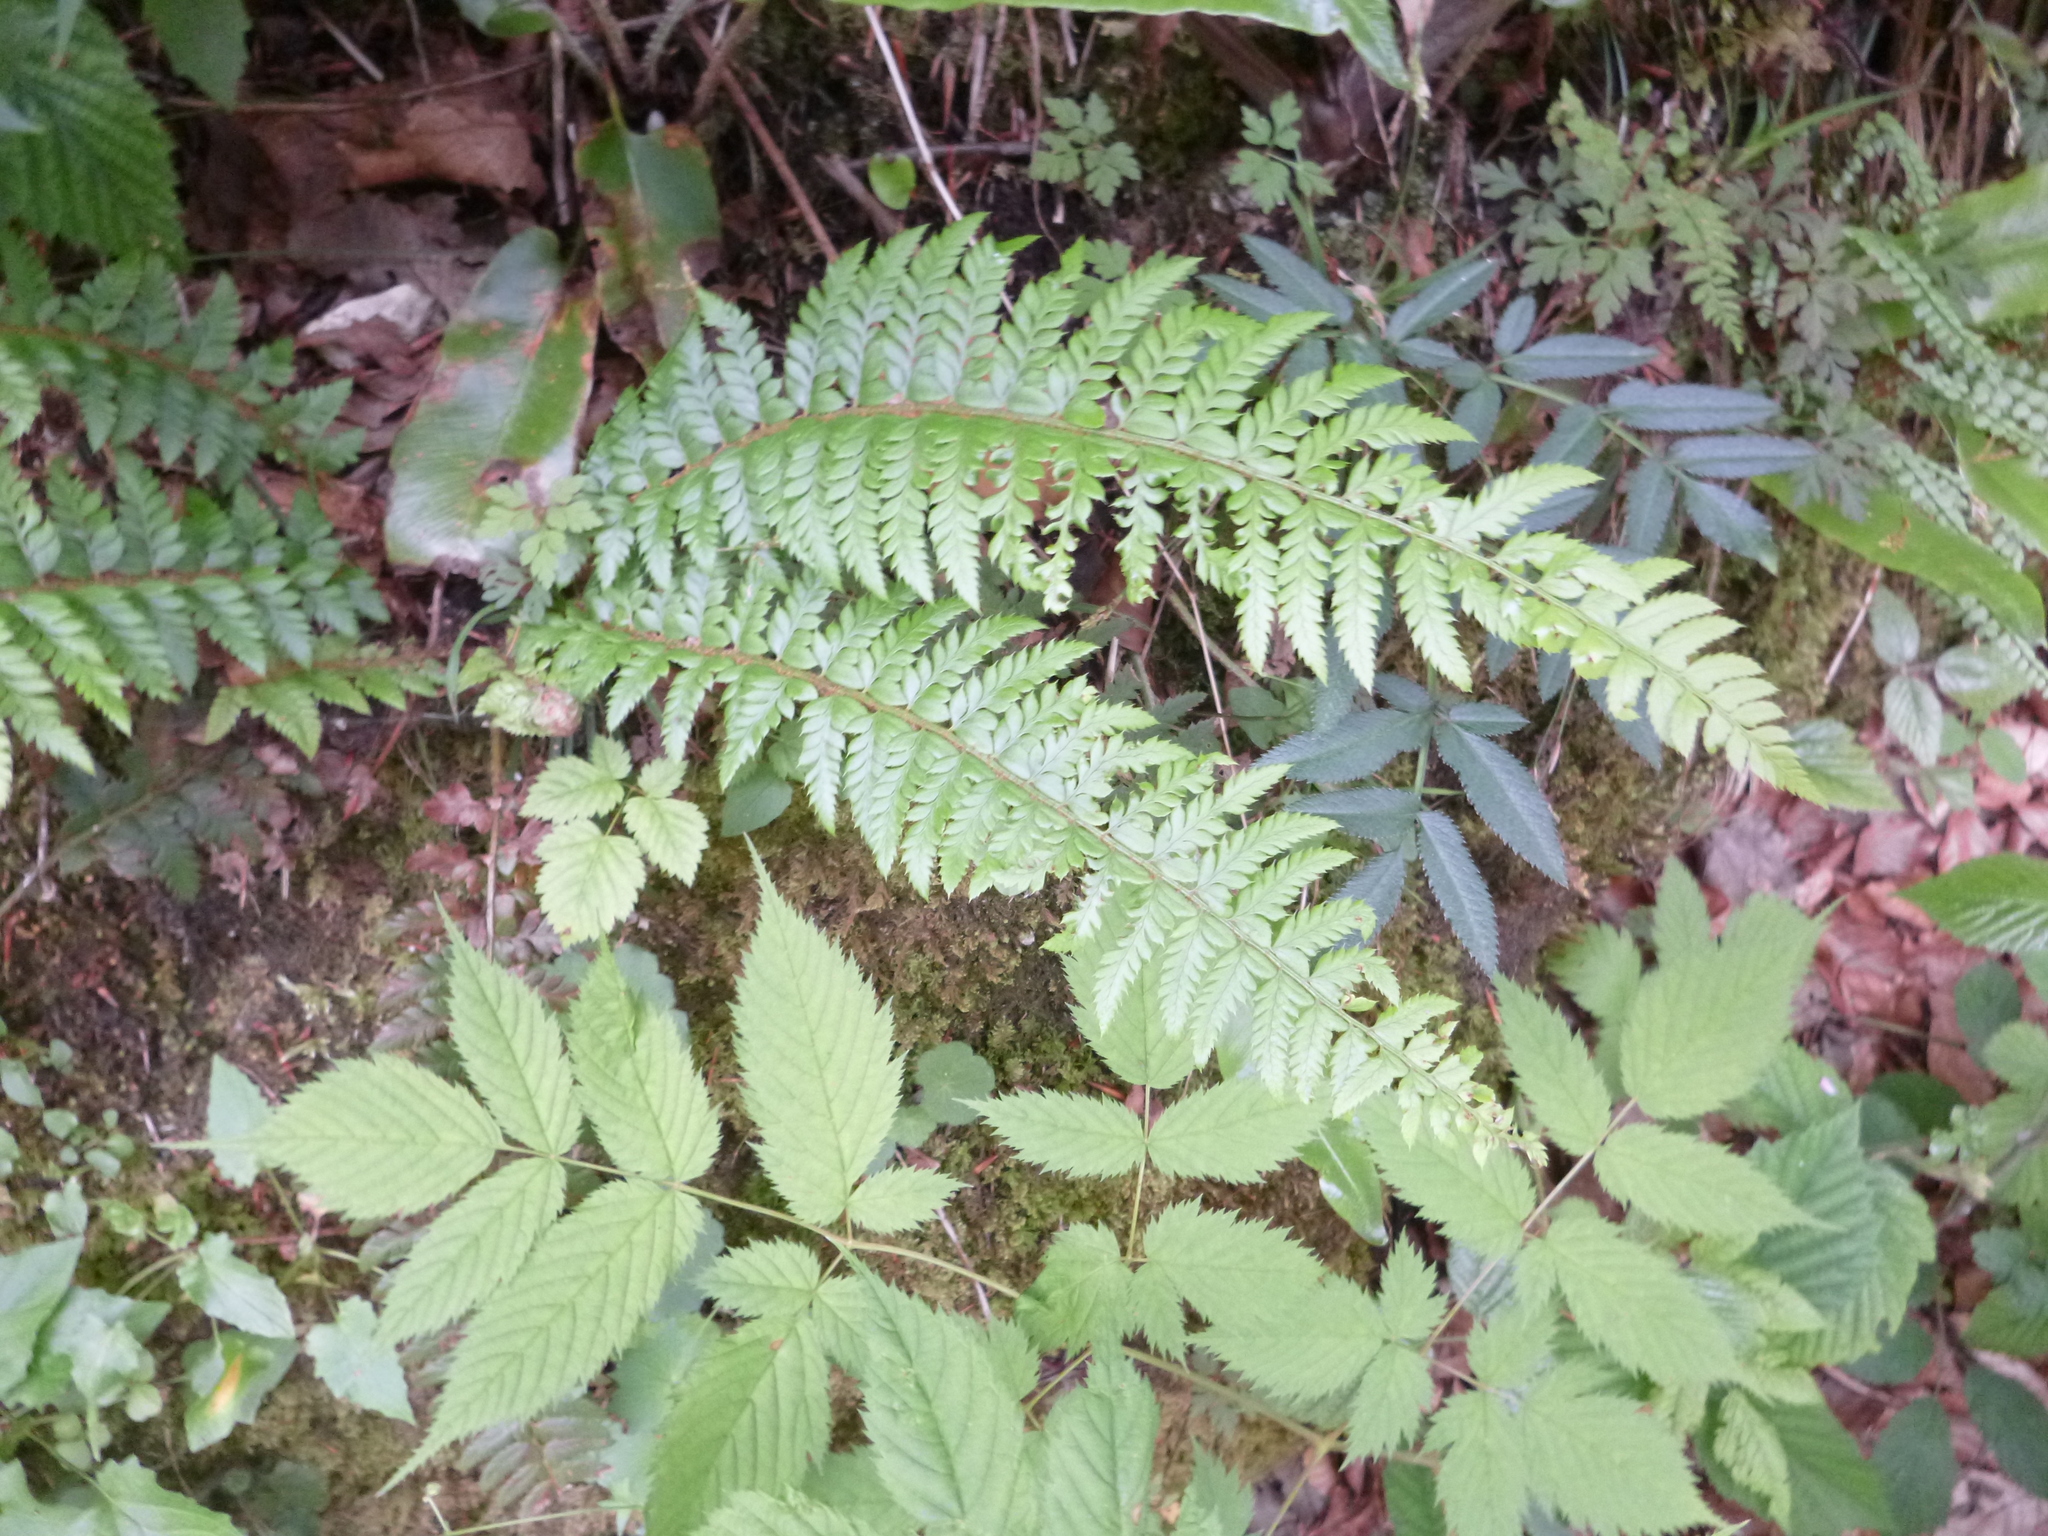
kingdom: Plantae
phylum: Tracheophyta
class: Polypodiopsida
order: Polypodiales
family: Dryopteridaceae
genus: Polystichum
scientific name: Polystichum aculeatum
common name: Hard shield-fern
